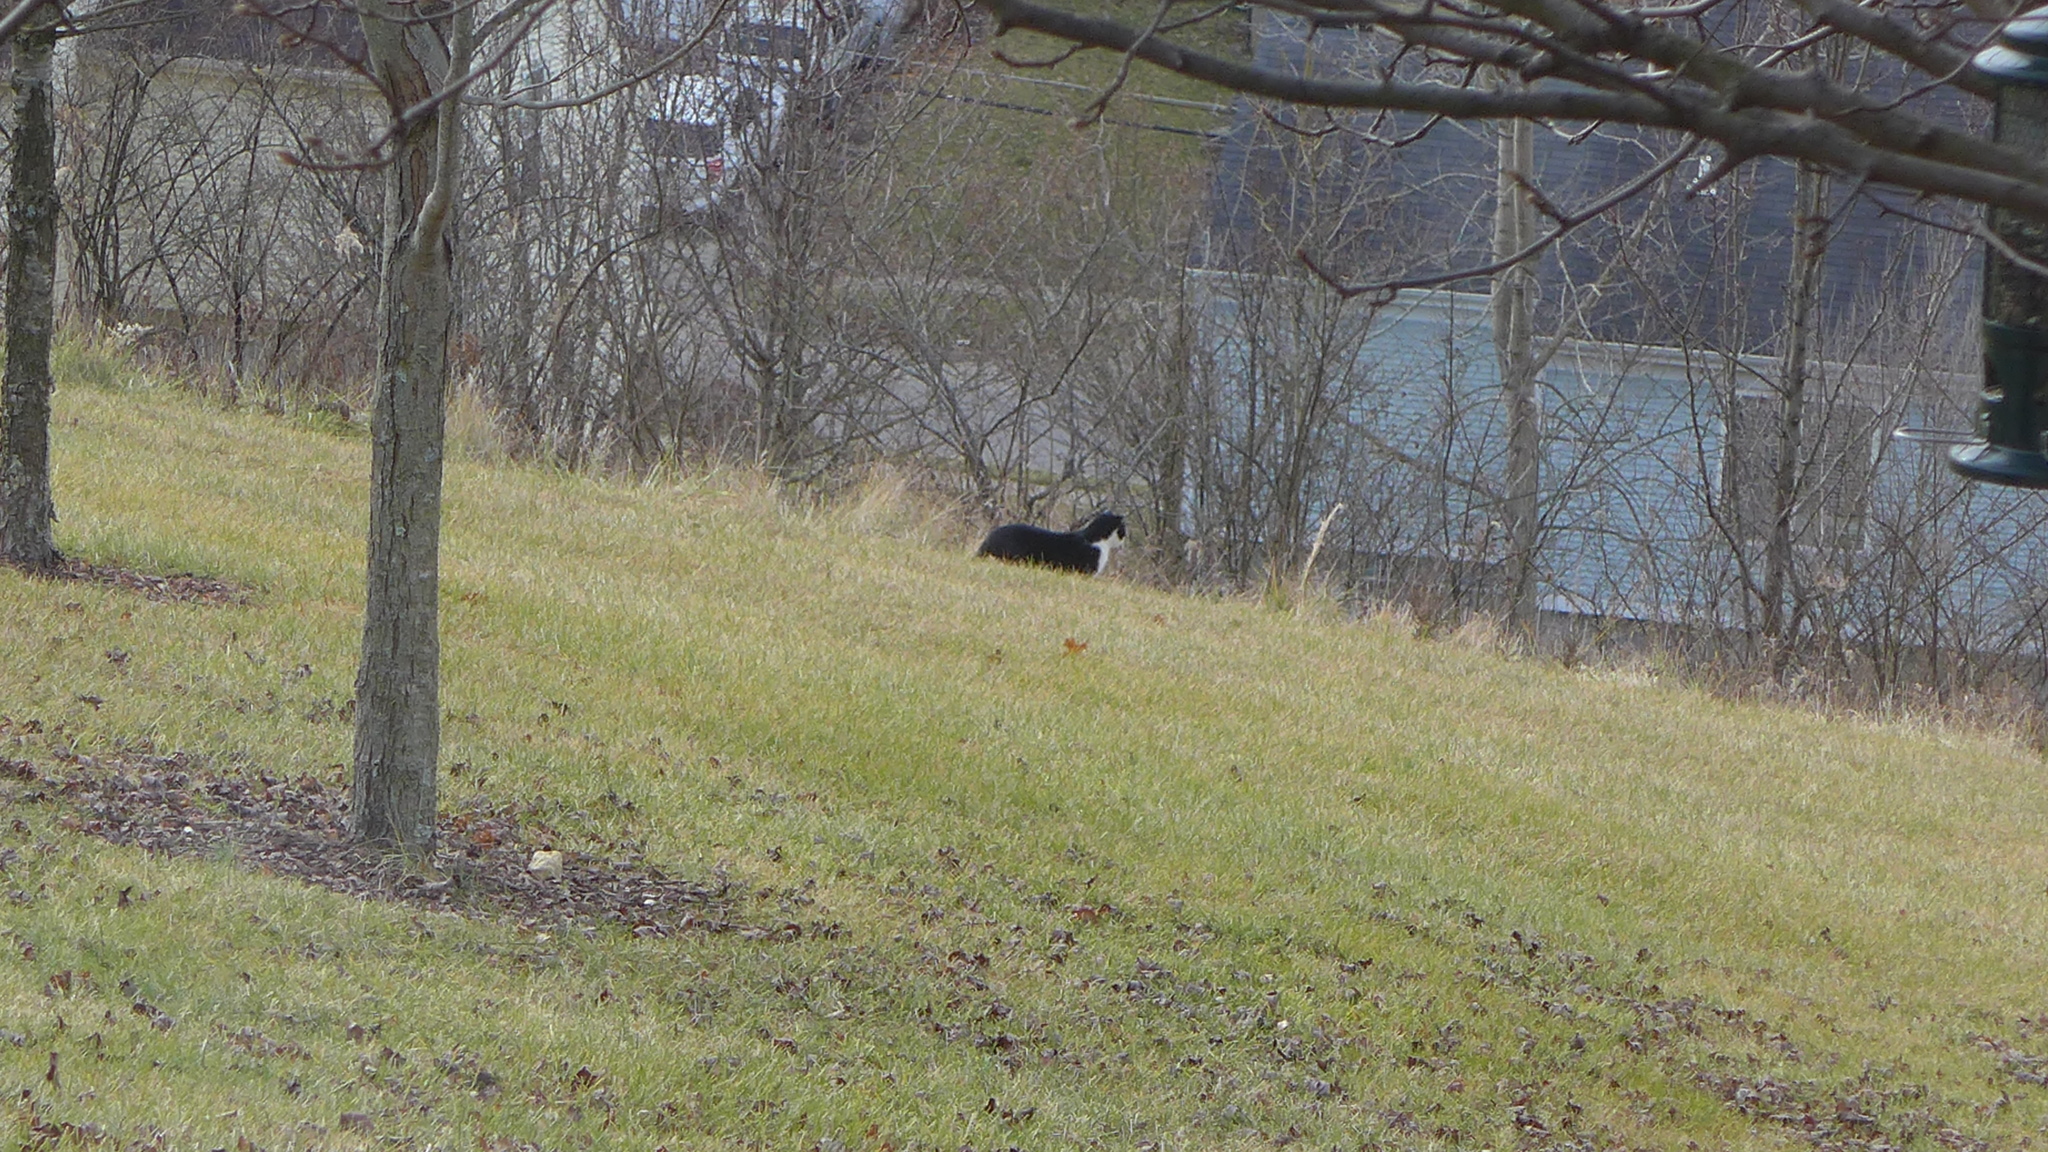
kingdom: Animalia
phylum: Chordata
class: Mammalia
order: Carnivora
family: Felidae
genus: Felis
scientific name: Felis catus
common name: Domestic cat
